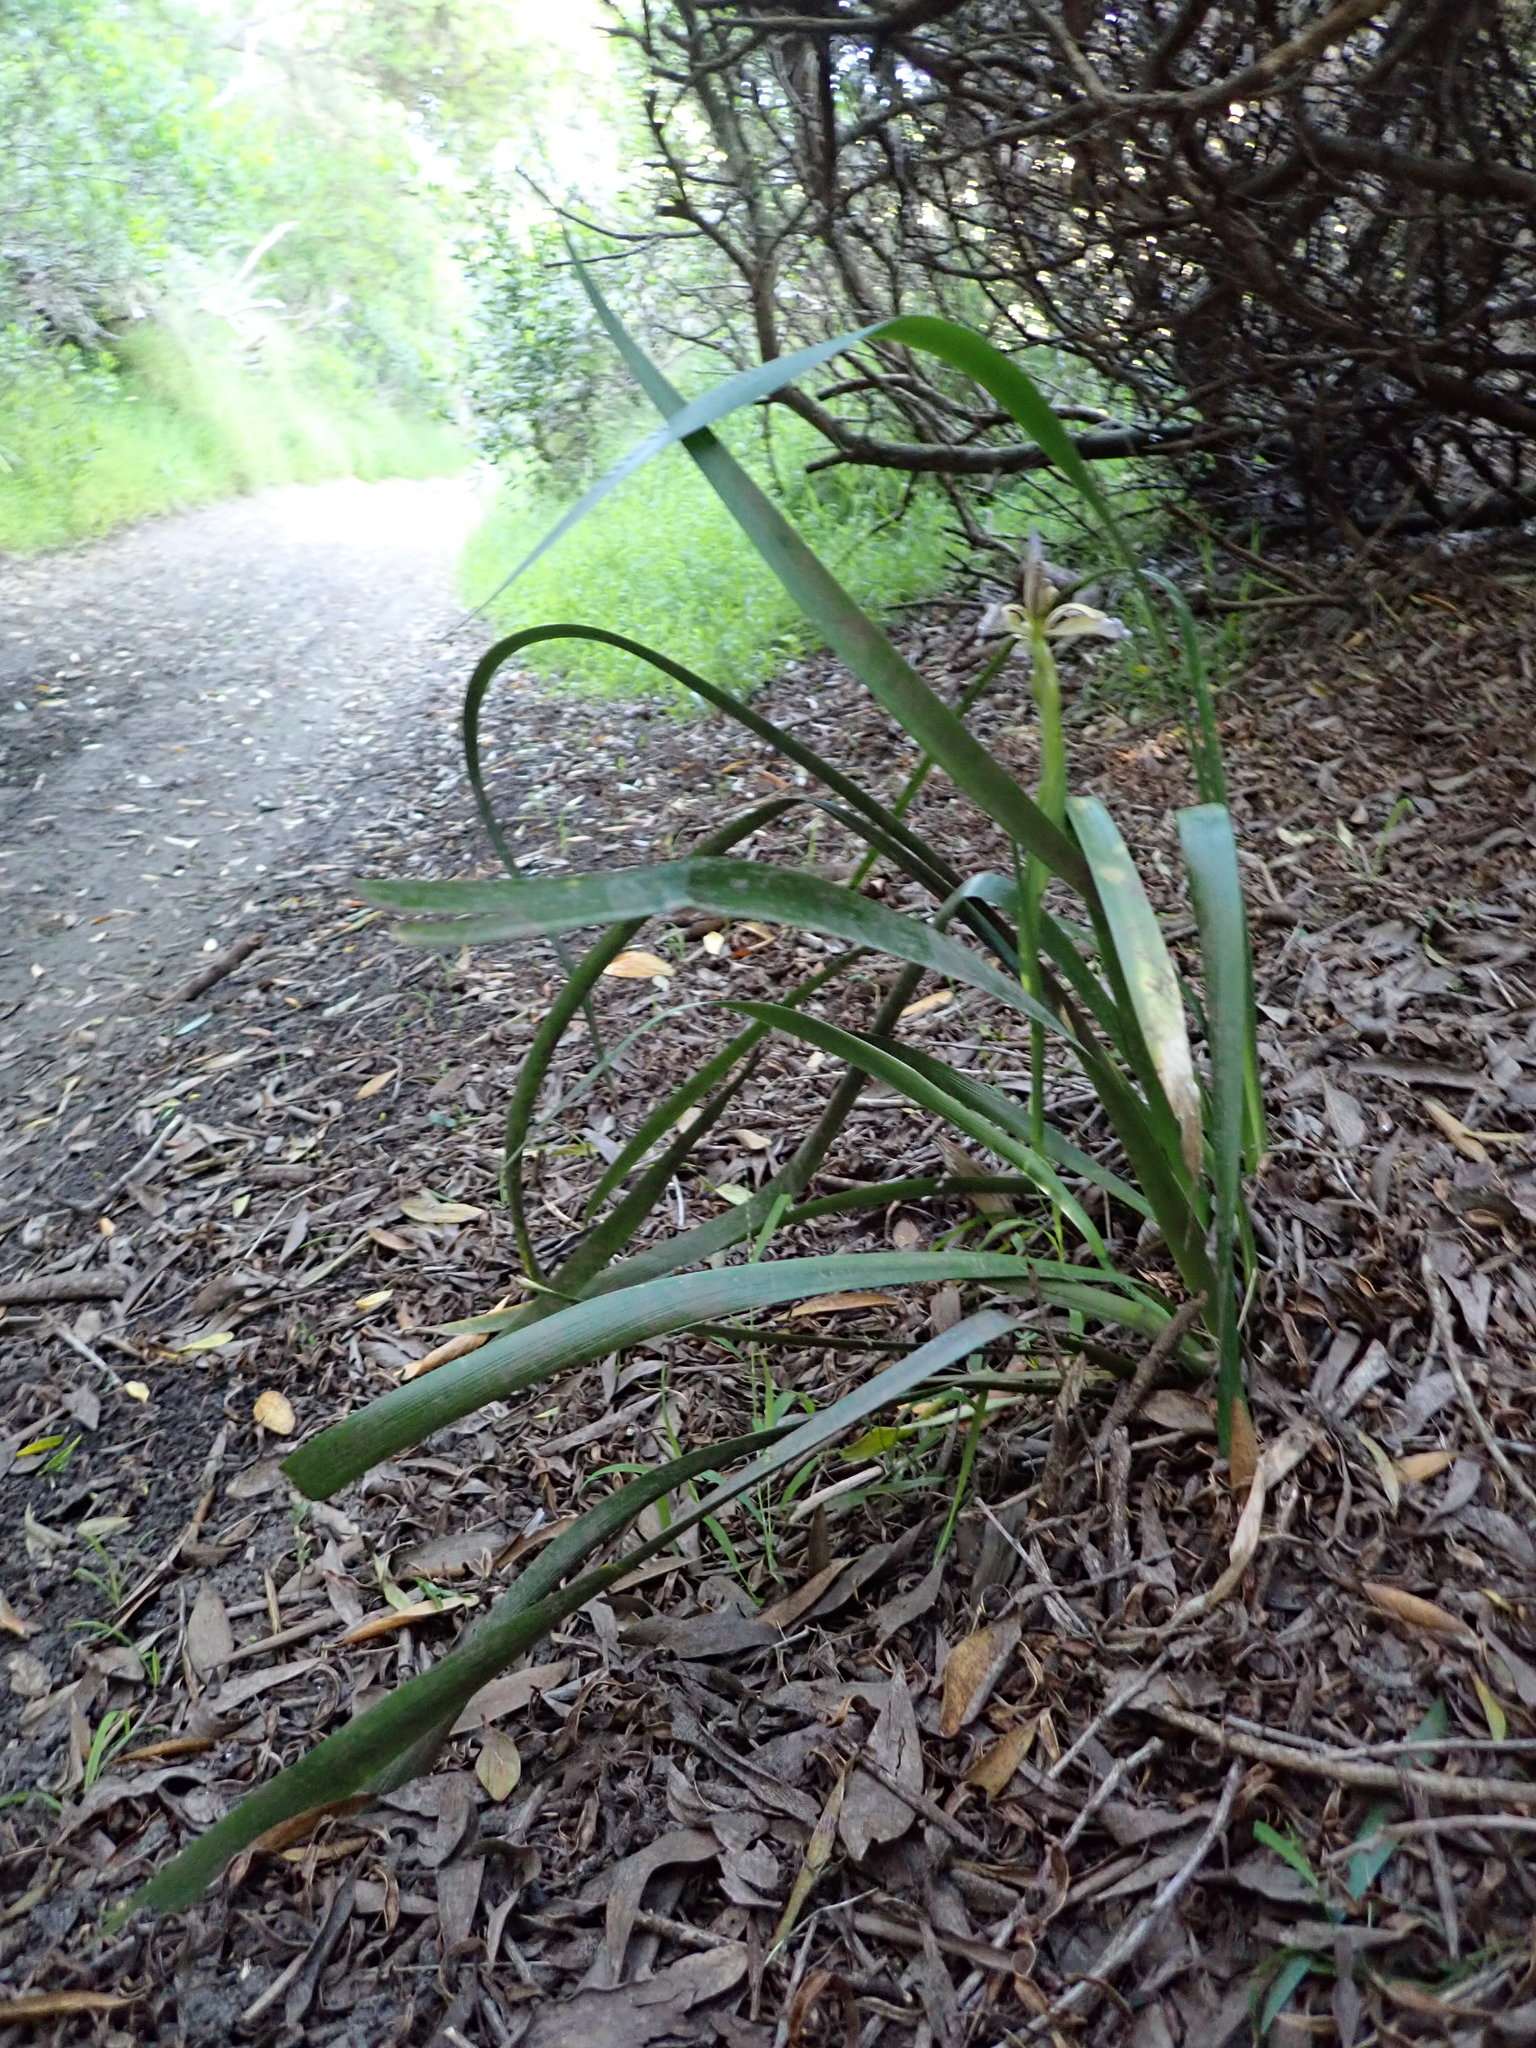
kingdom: Plantae
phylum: Tracheophyta
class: Liliopsida
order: Asparagales
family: Iridaceae
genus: Iris
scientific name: Iris foetidissima
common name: Stinking iris
